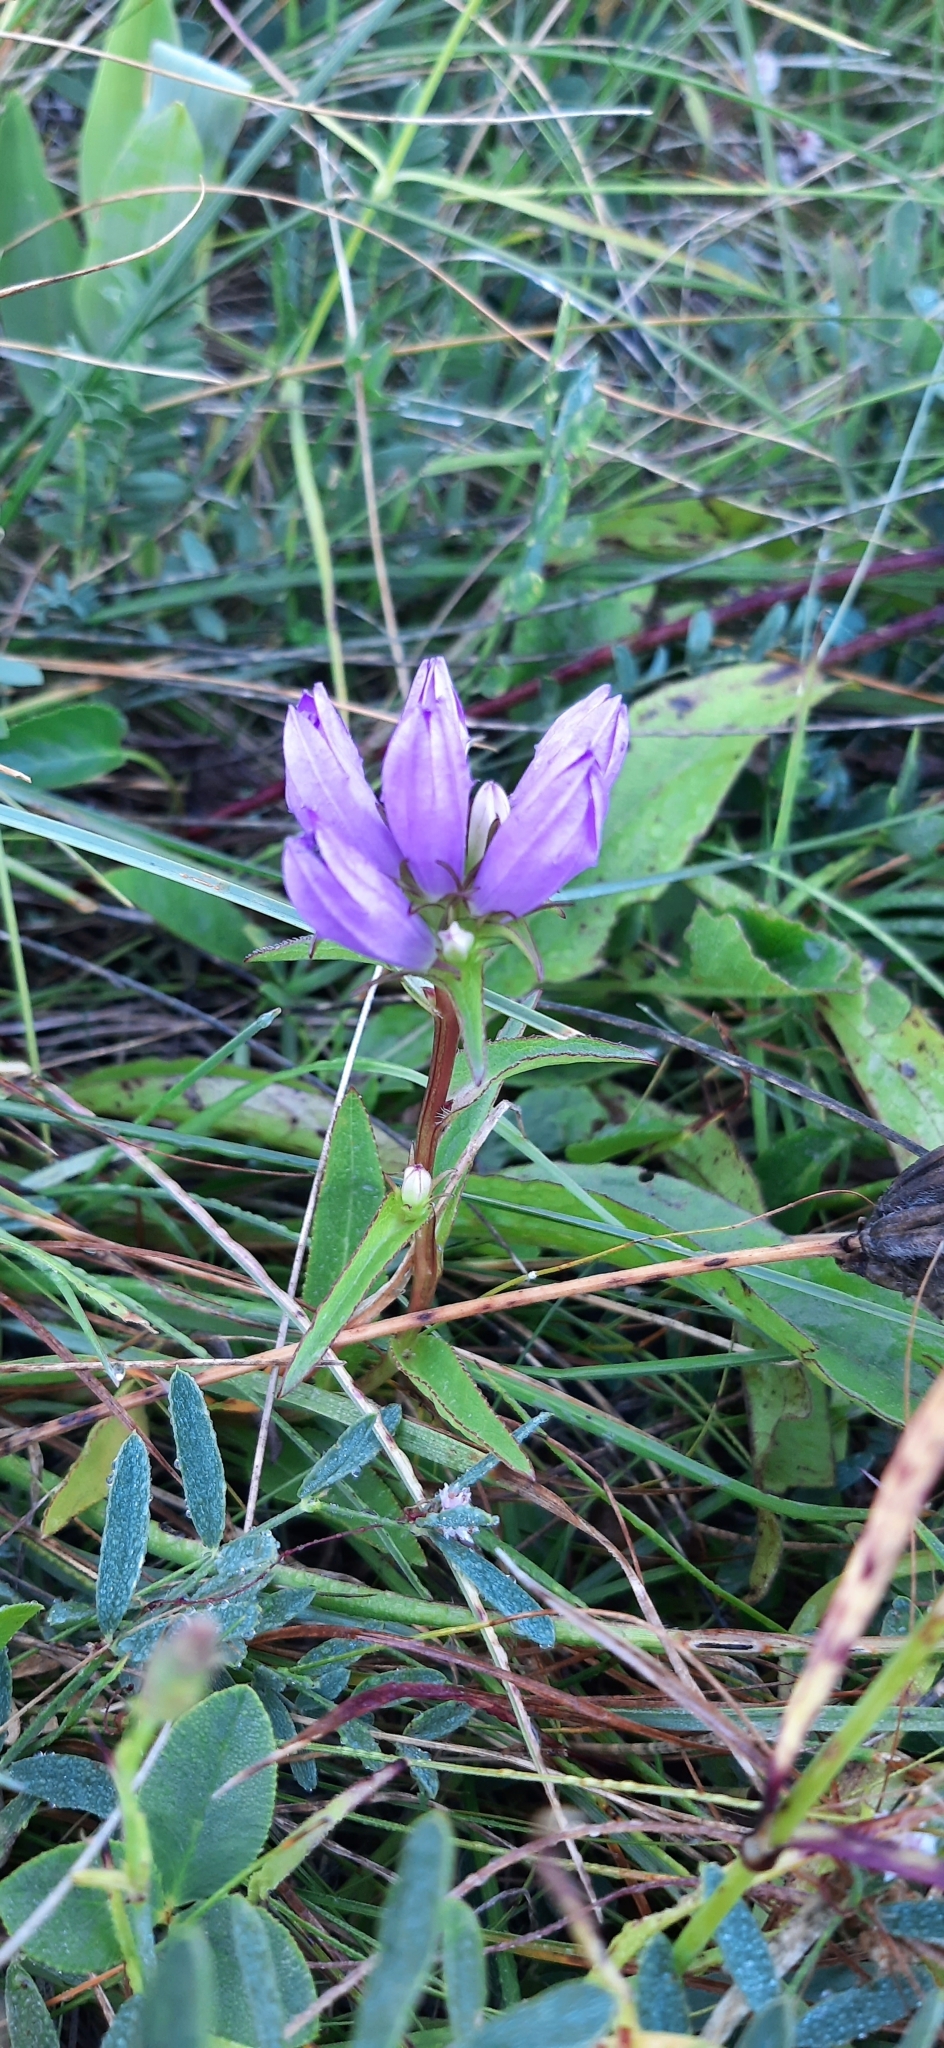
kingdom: Plantae
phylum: Tracheophyta
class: Magnoliopsida
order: Asterales
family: Campanulaceae
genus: Campanula
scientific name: Campanula glomerata
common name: Clustered bellflower
